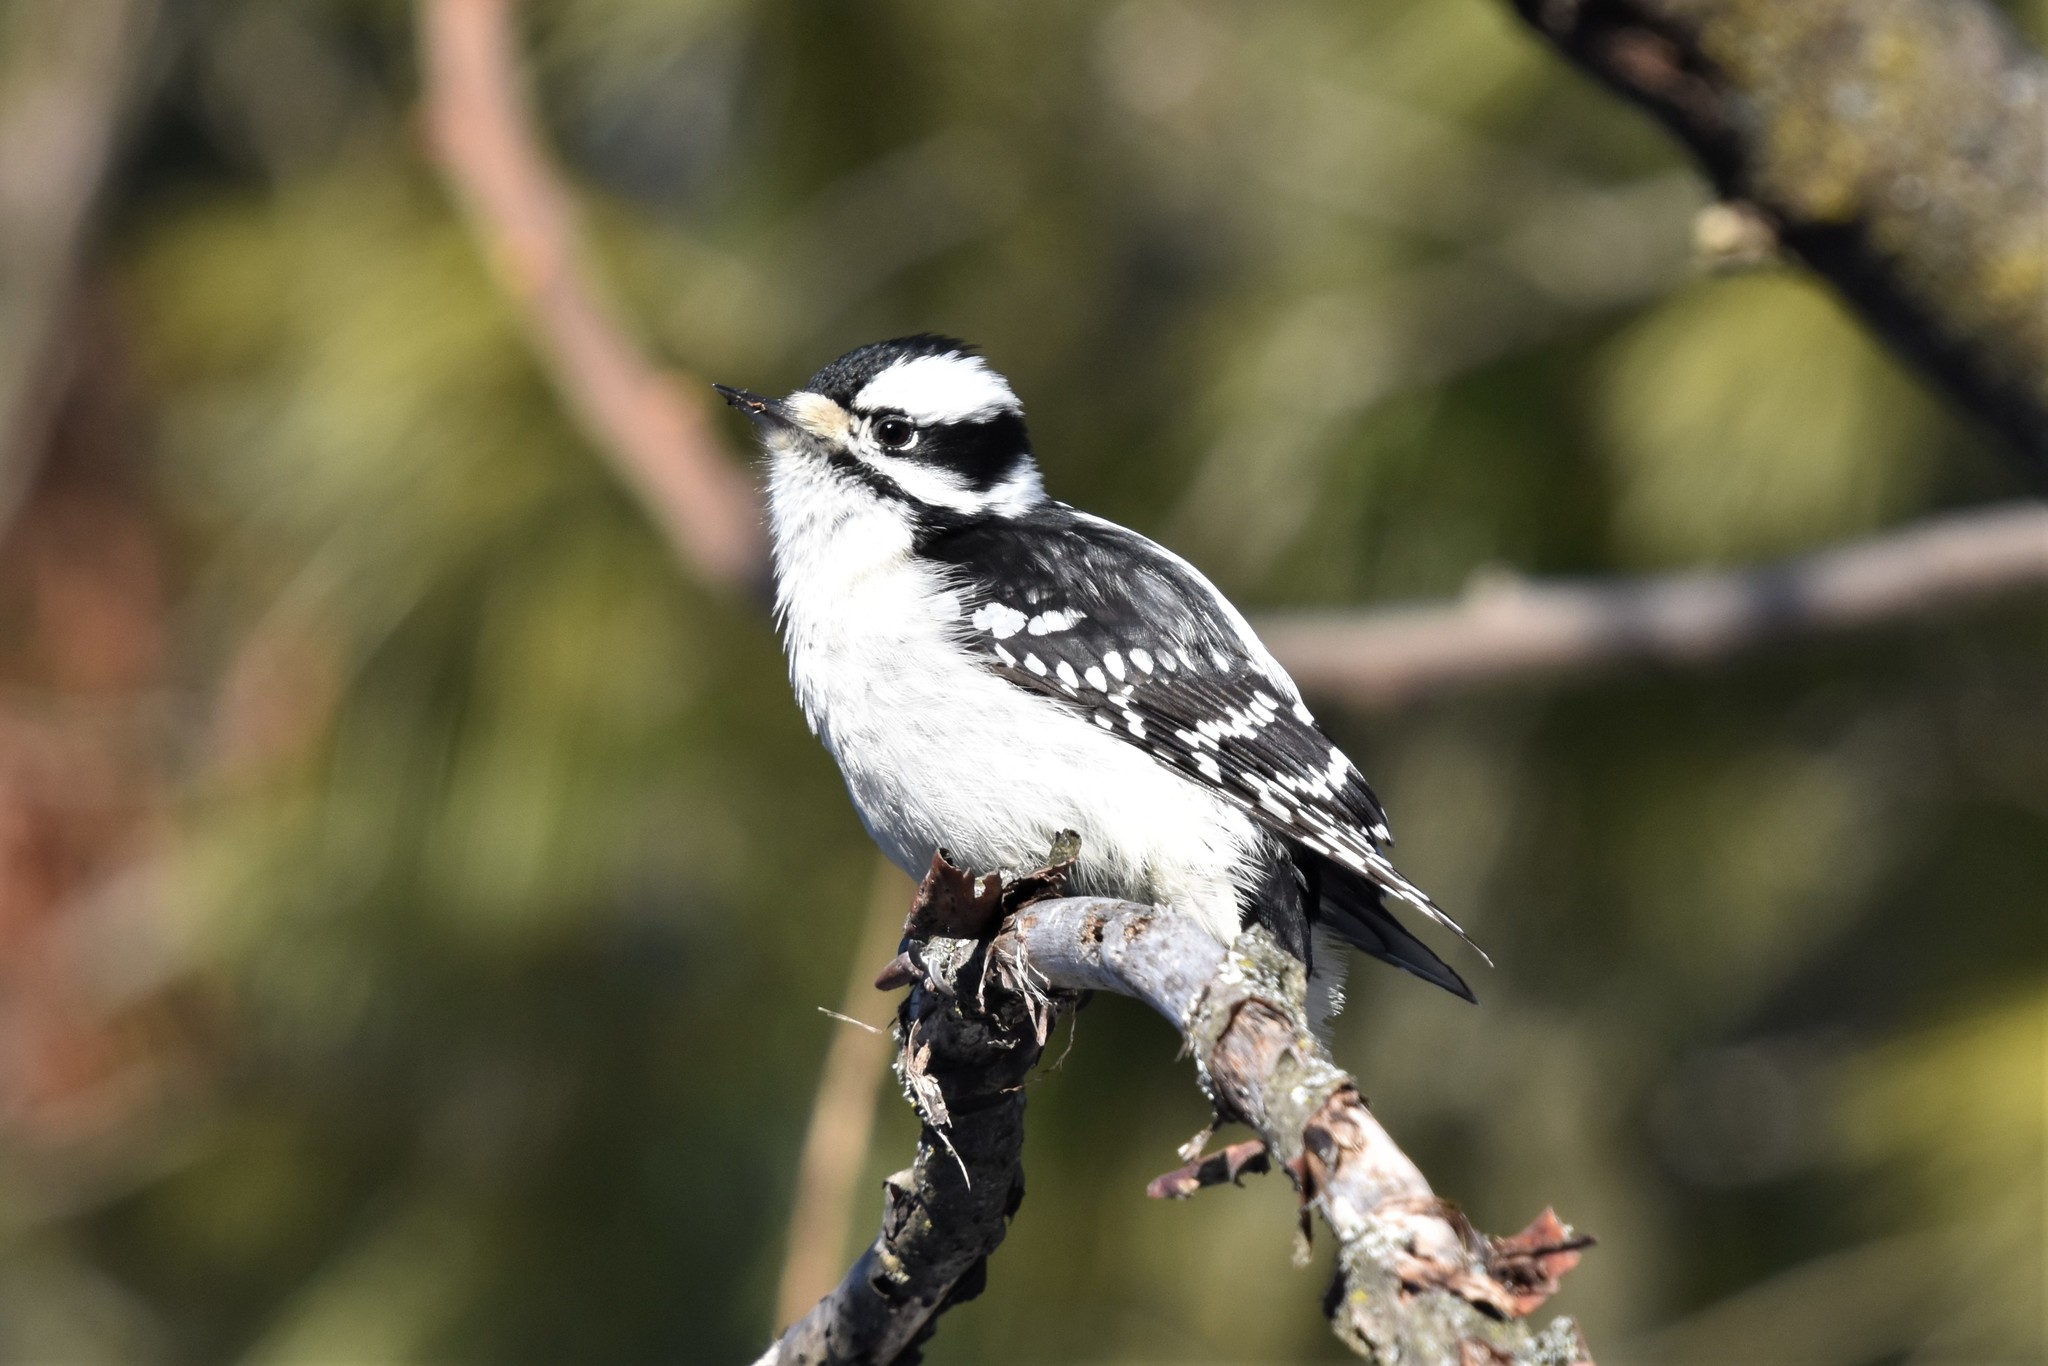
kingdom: Animalia
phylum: Chordata
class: Aves
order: Piciformes
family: Picidae
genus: Dryobates
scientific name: Dryobates pubescens
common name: Downy woodpecker
